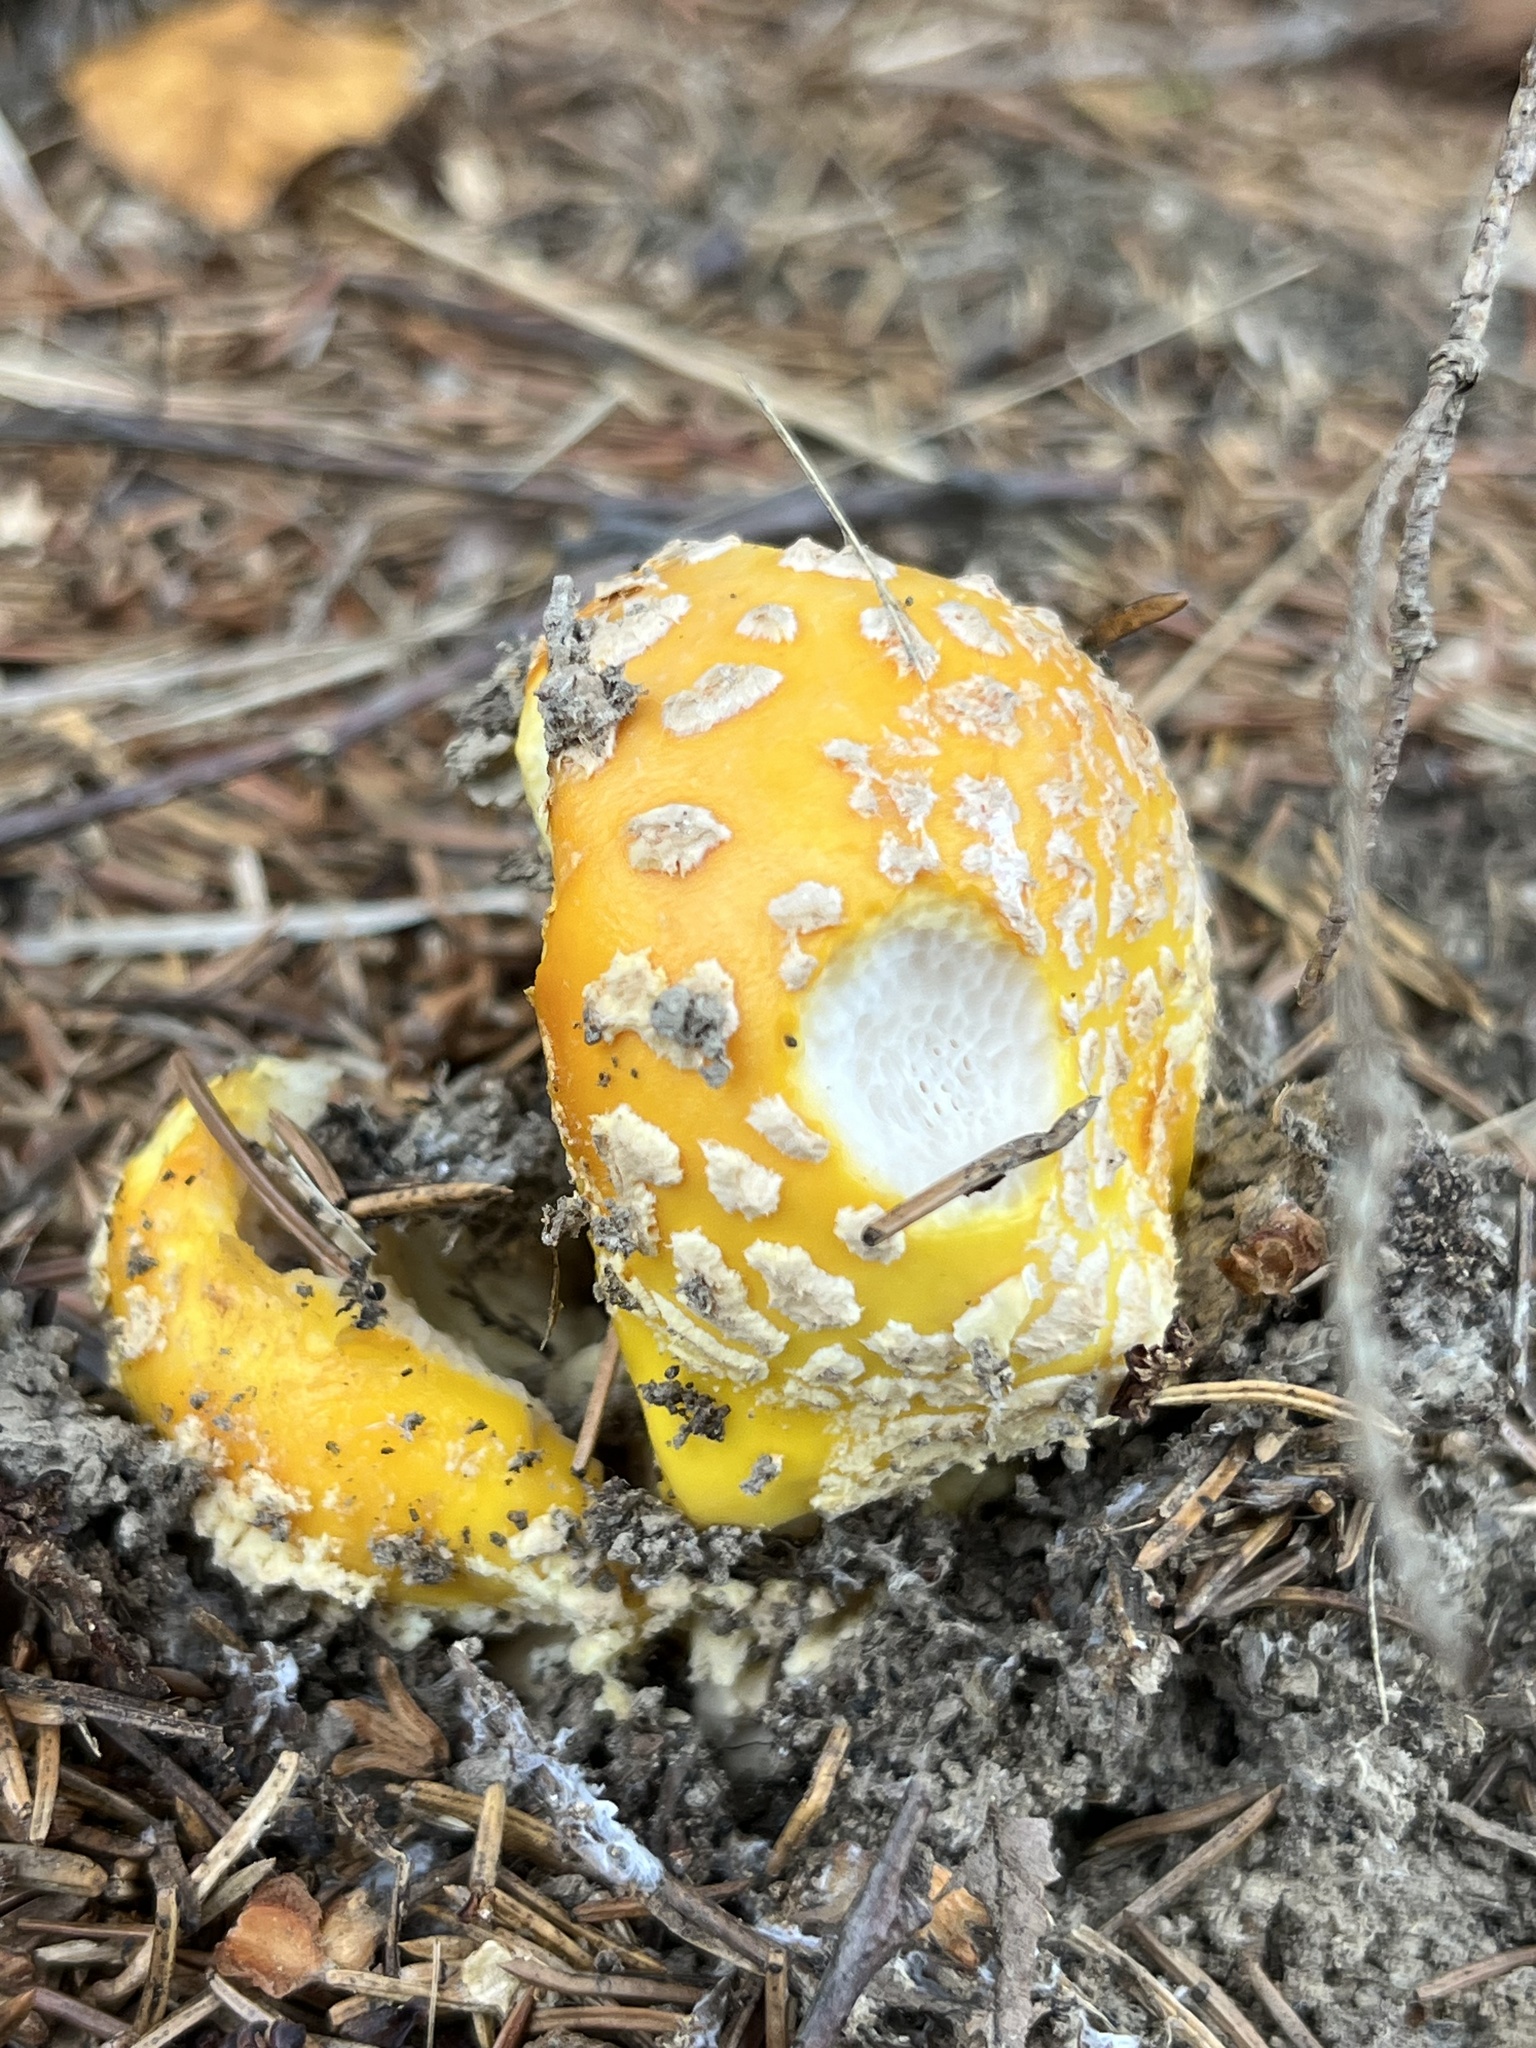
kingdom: Fungi
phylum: Basidiomycota
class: Agaricomycetes
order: Agaricales
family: Amanitaceae
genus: Amanita
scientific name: Amanita muscaria
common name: Fly agaric
